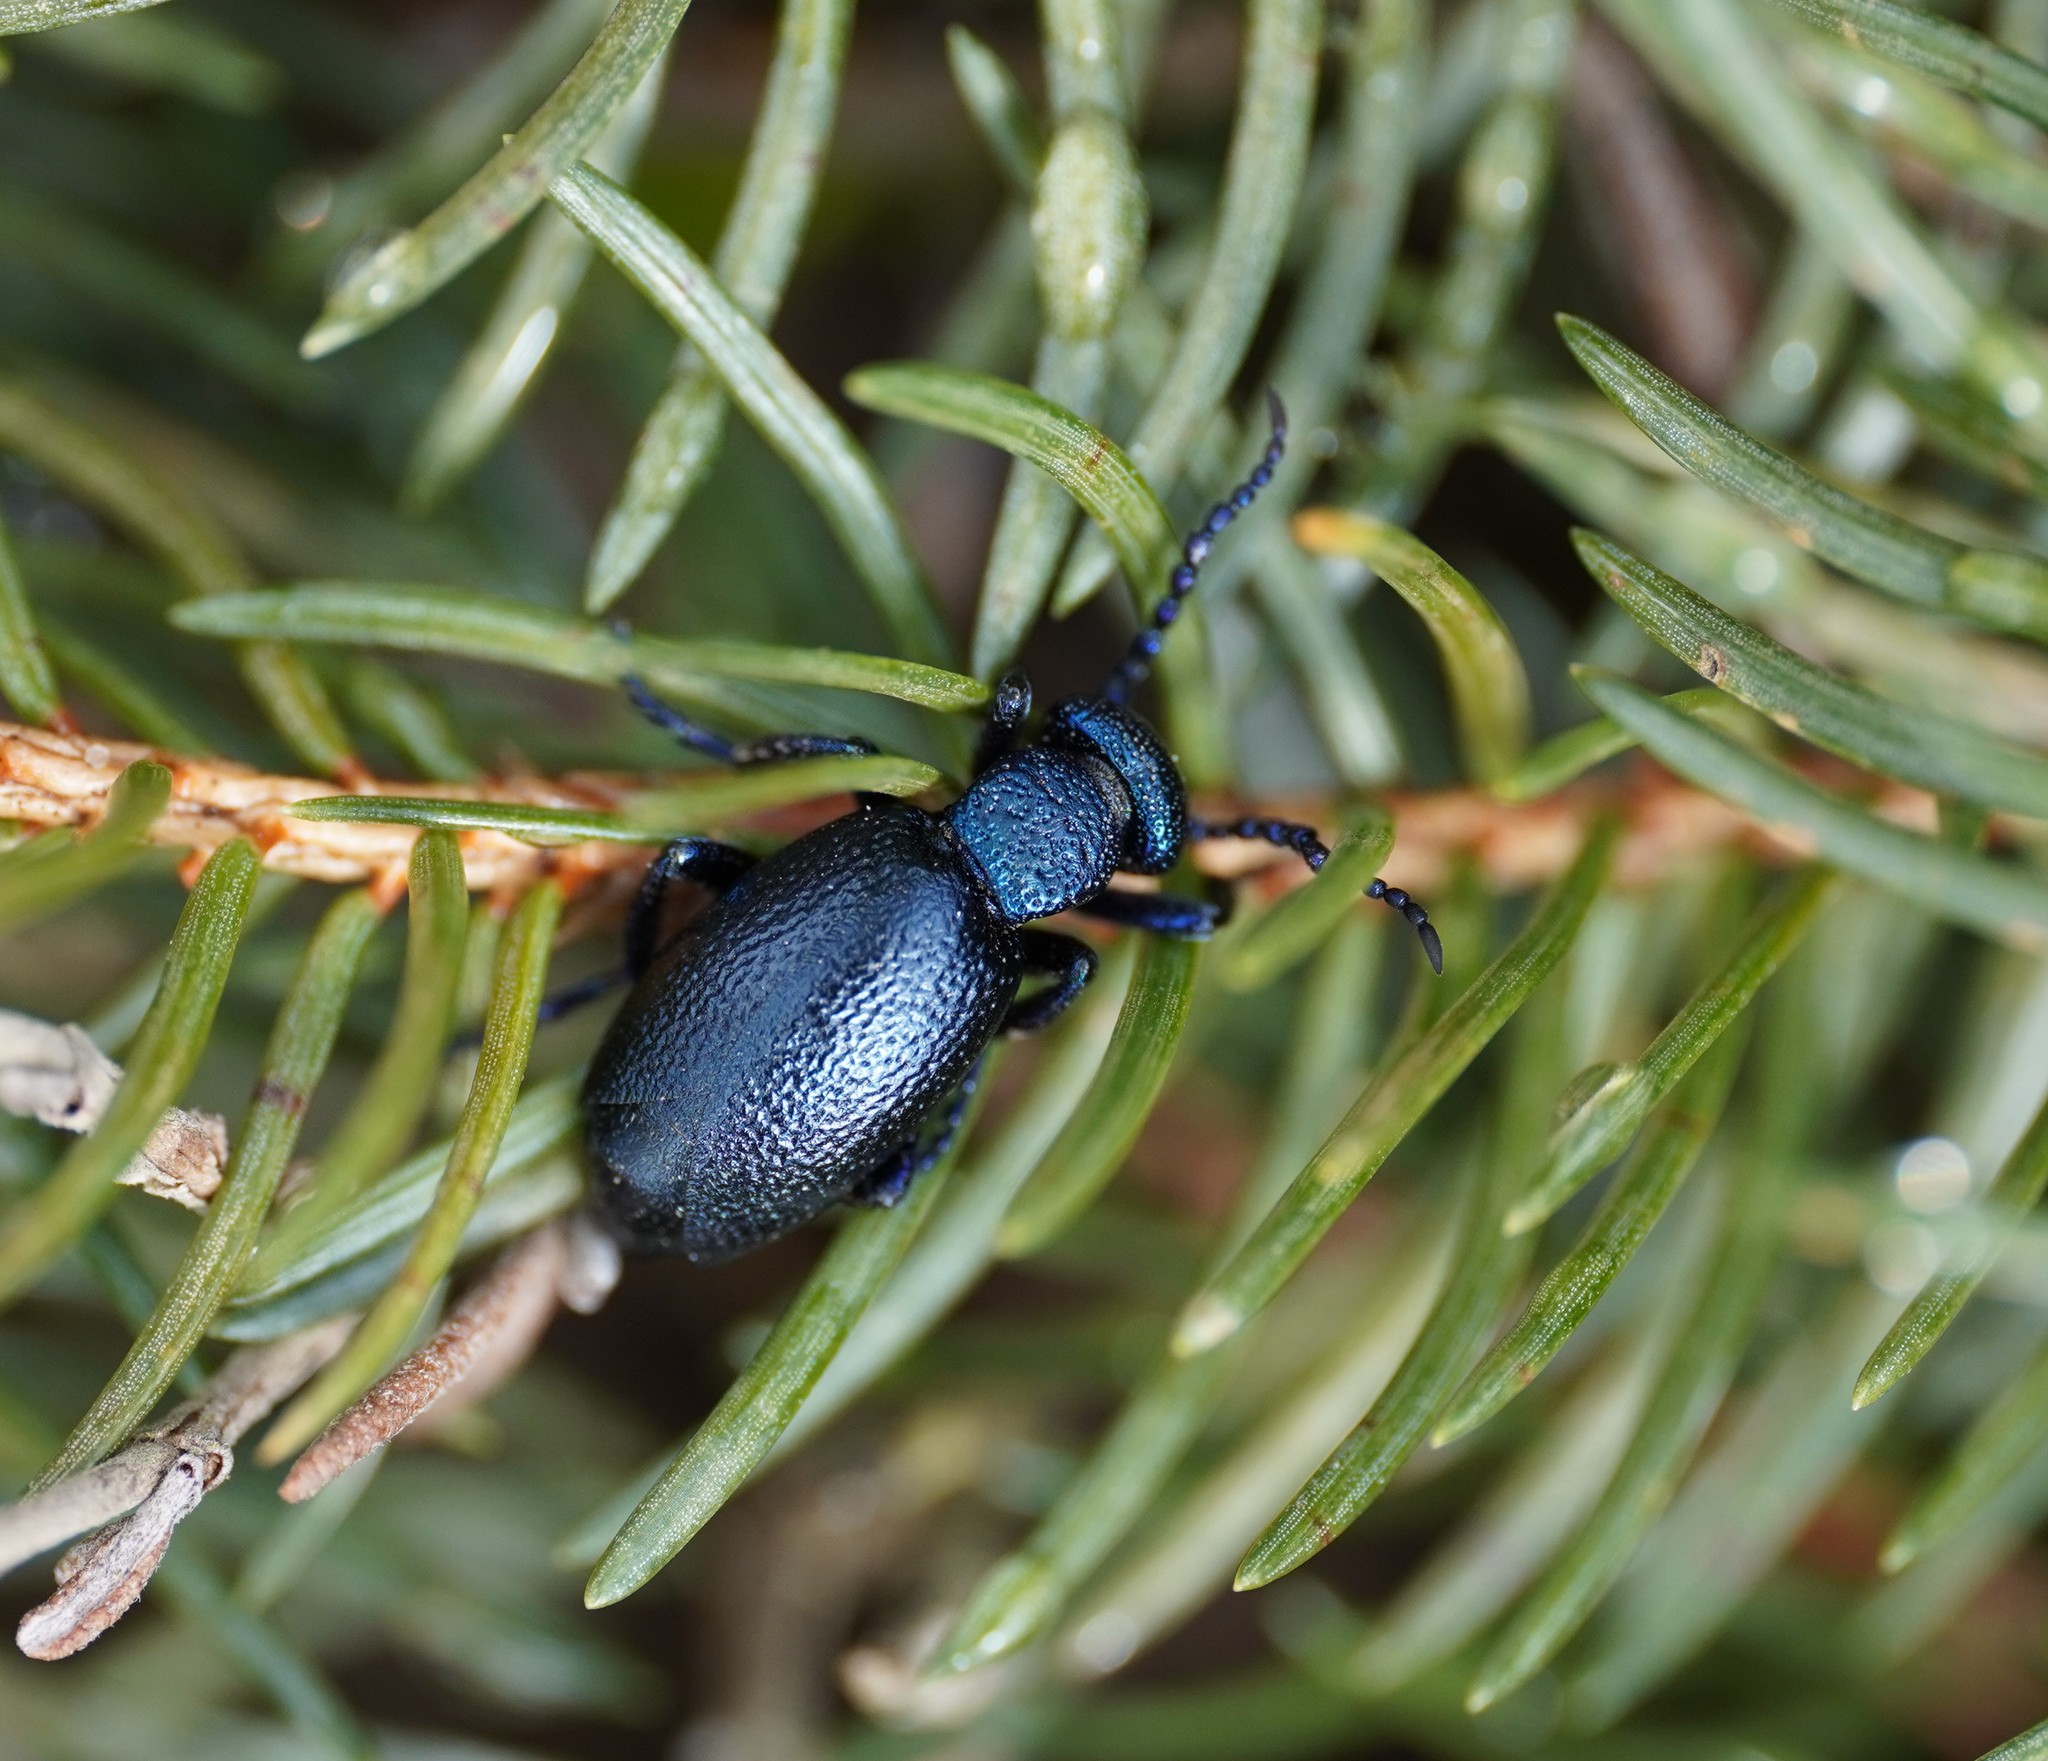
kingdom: Animalia
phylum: Arthropoda
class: Insecta
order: Coleoptera
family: Meloidae
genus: Meloe
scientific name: Meloe proscarabaeus
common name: Black oil-beetle
